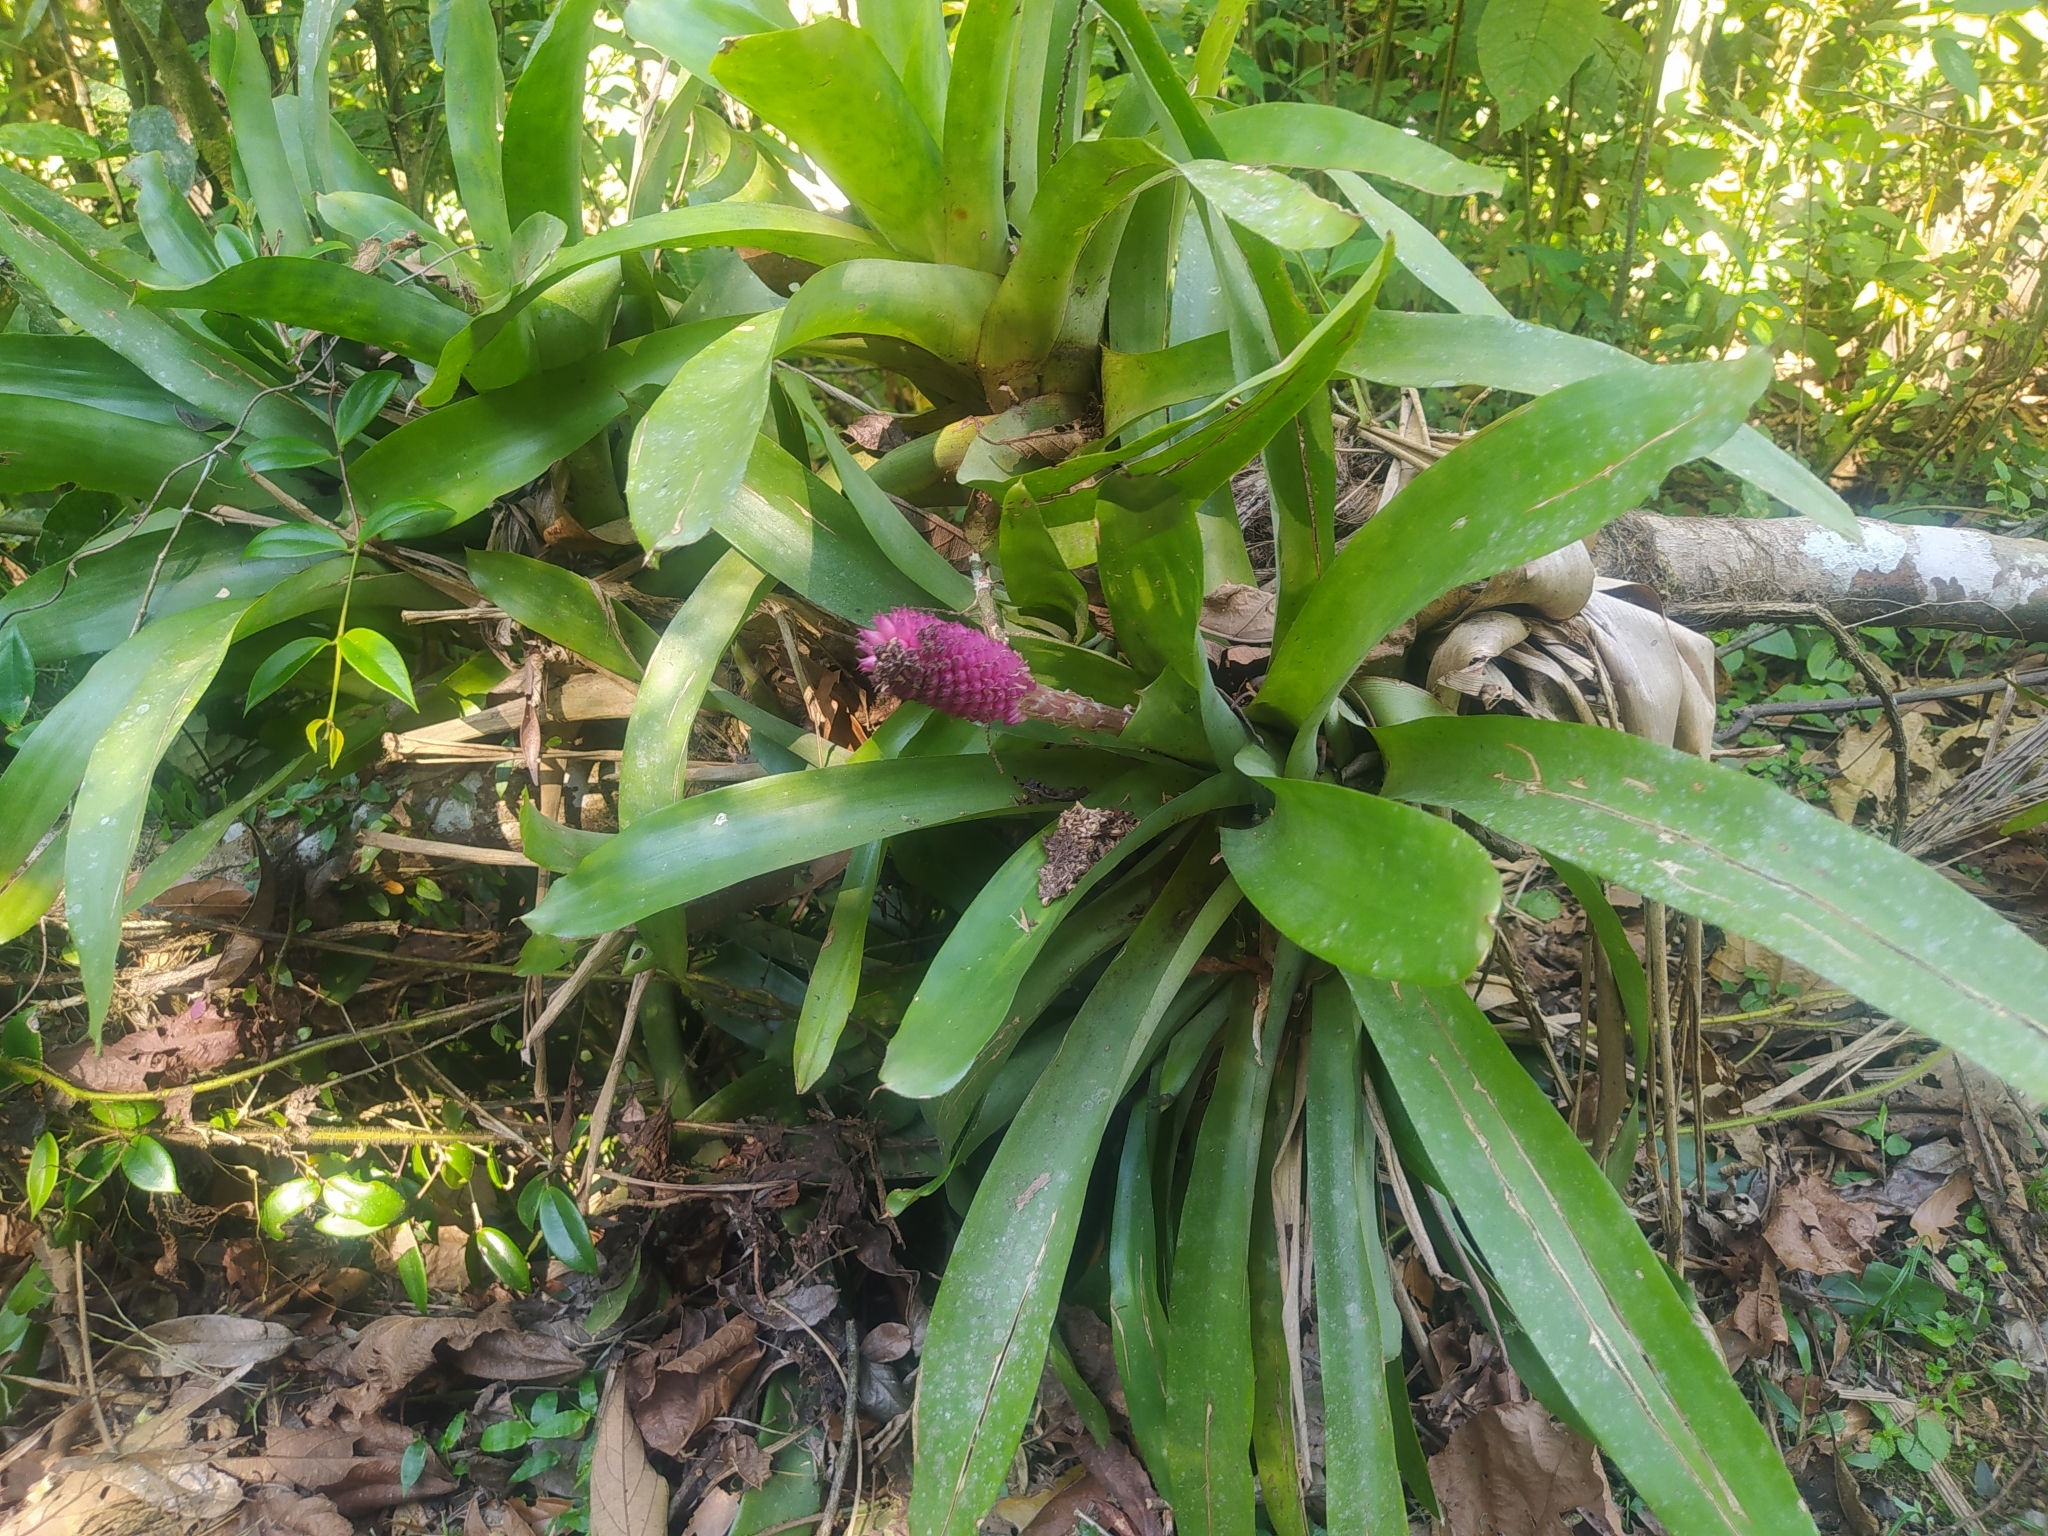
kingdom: Plantae
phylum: Tracheophyta
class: Liliopsida
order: Poales
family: Bromeliaceae
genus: Aechmea
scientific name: Aechmea cylindrata
